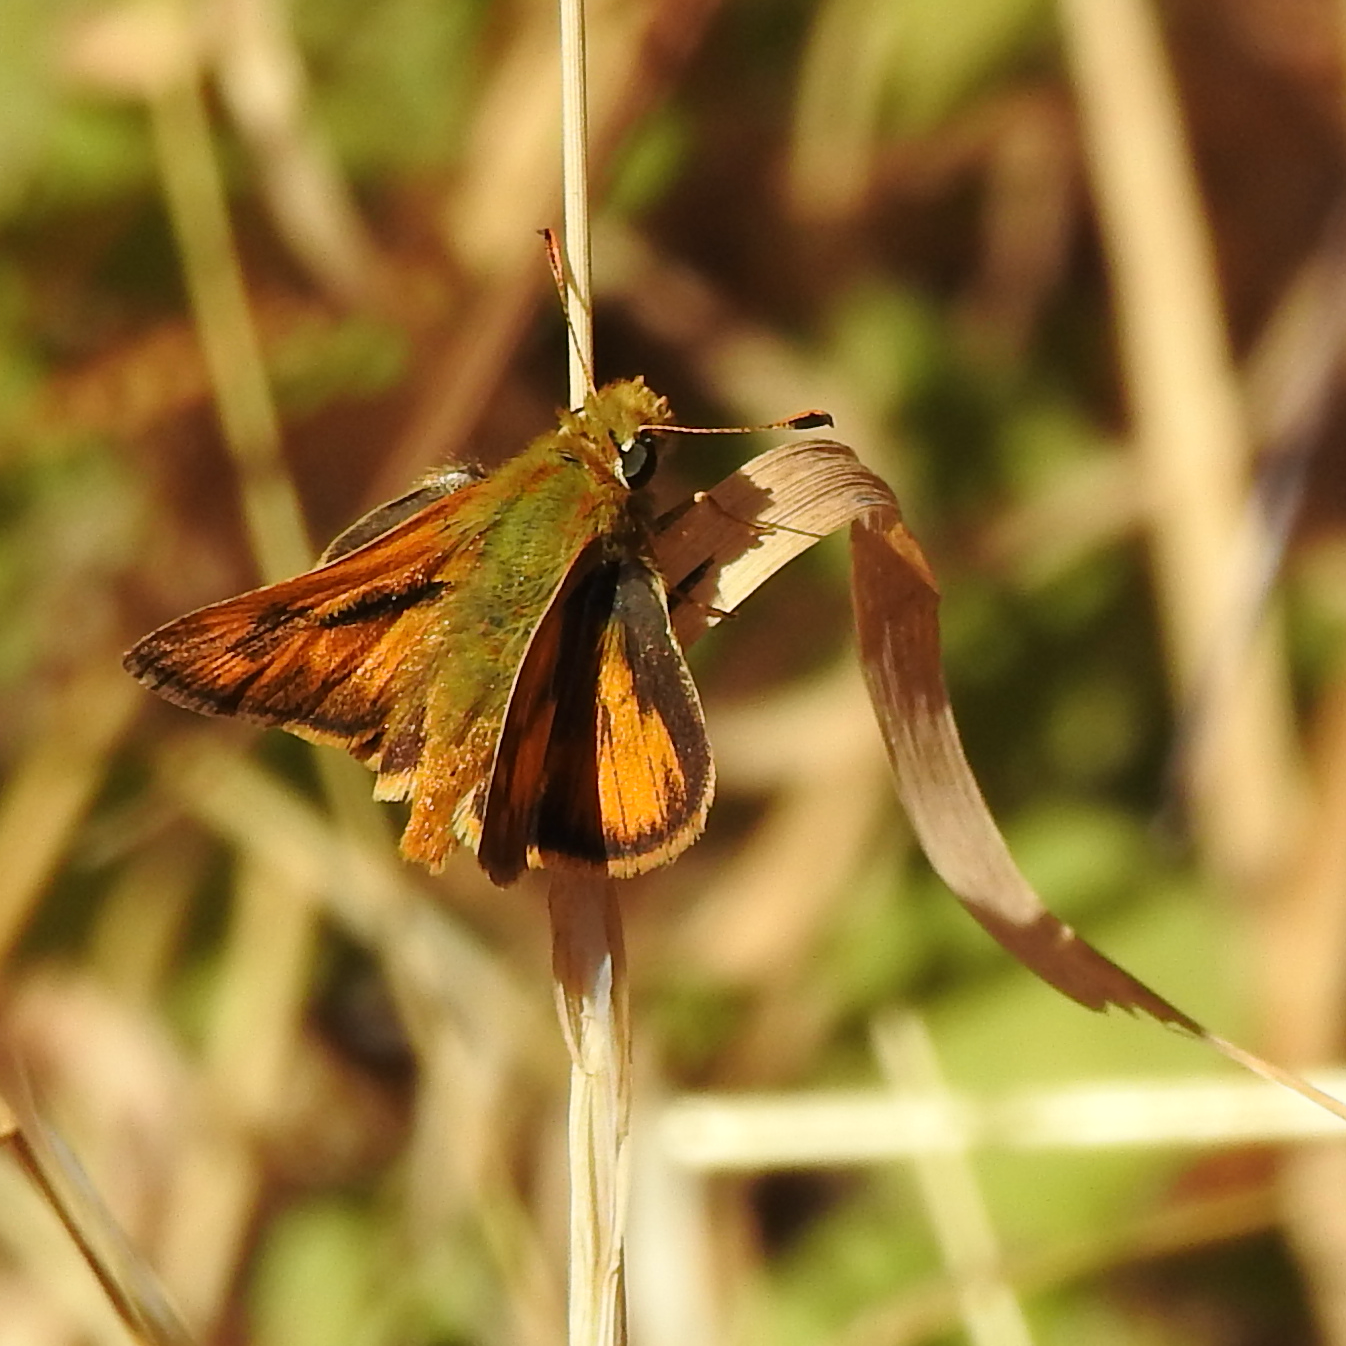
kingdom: Animalia
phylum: Arthropoda
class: Insecta
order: Lepidoptera
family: Hesperiidae
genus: Ochlodes
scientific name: Ochlodes sylvanoides
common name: Woodland skipper
